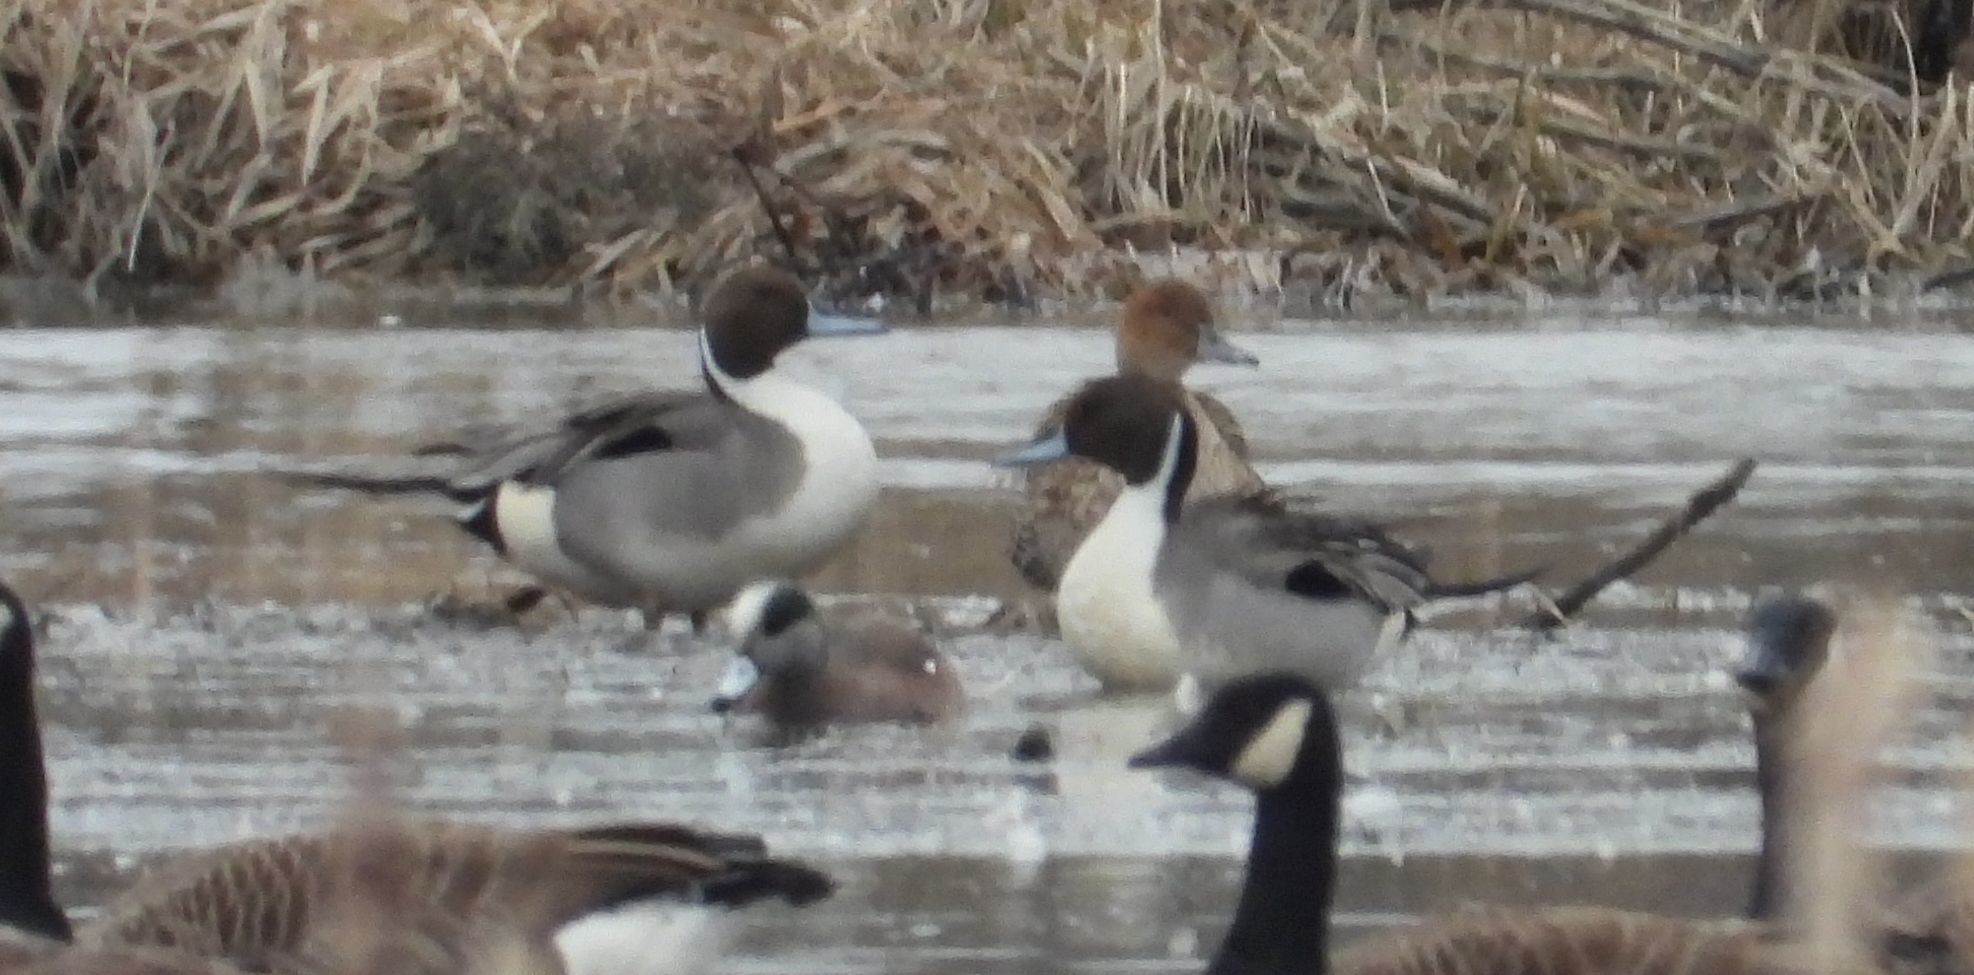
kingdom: Animalia
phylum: Chordata
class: Aves
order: Anseriformes
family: Anatidae
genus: Anas
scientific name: Anas acuta
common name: Northern pintail
